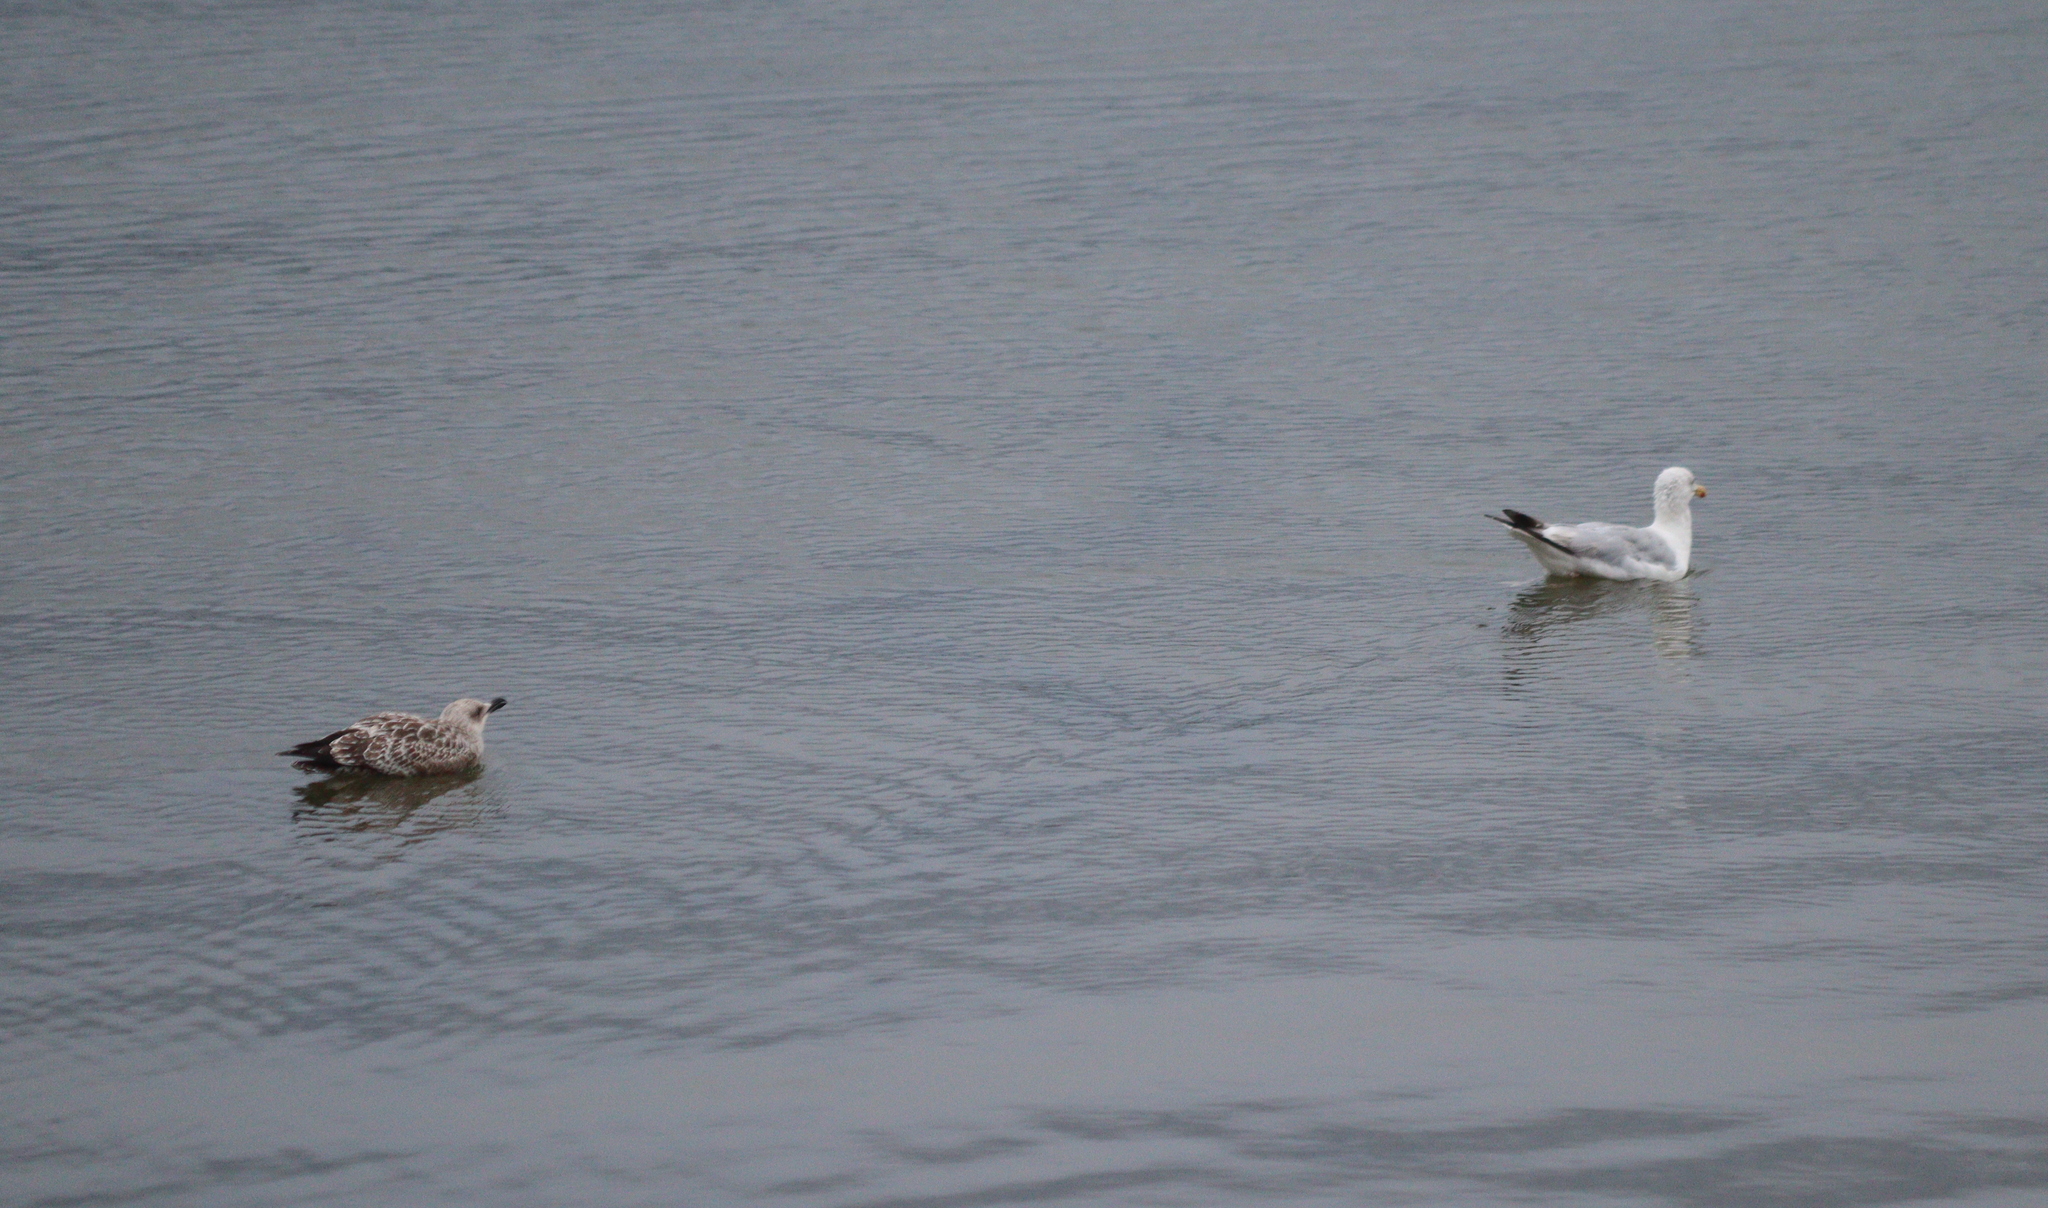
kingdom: Animalia
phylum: Chordata
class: Aves
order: Charadriiformes
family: Laridae
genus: Larus
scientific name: Larus argentatus
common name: Herring gull
